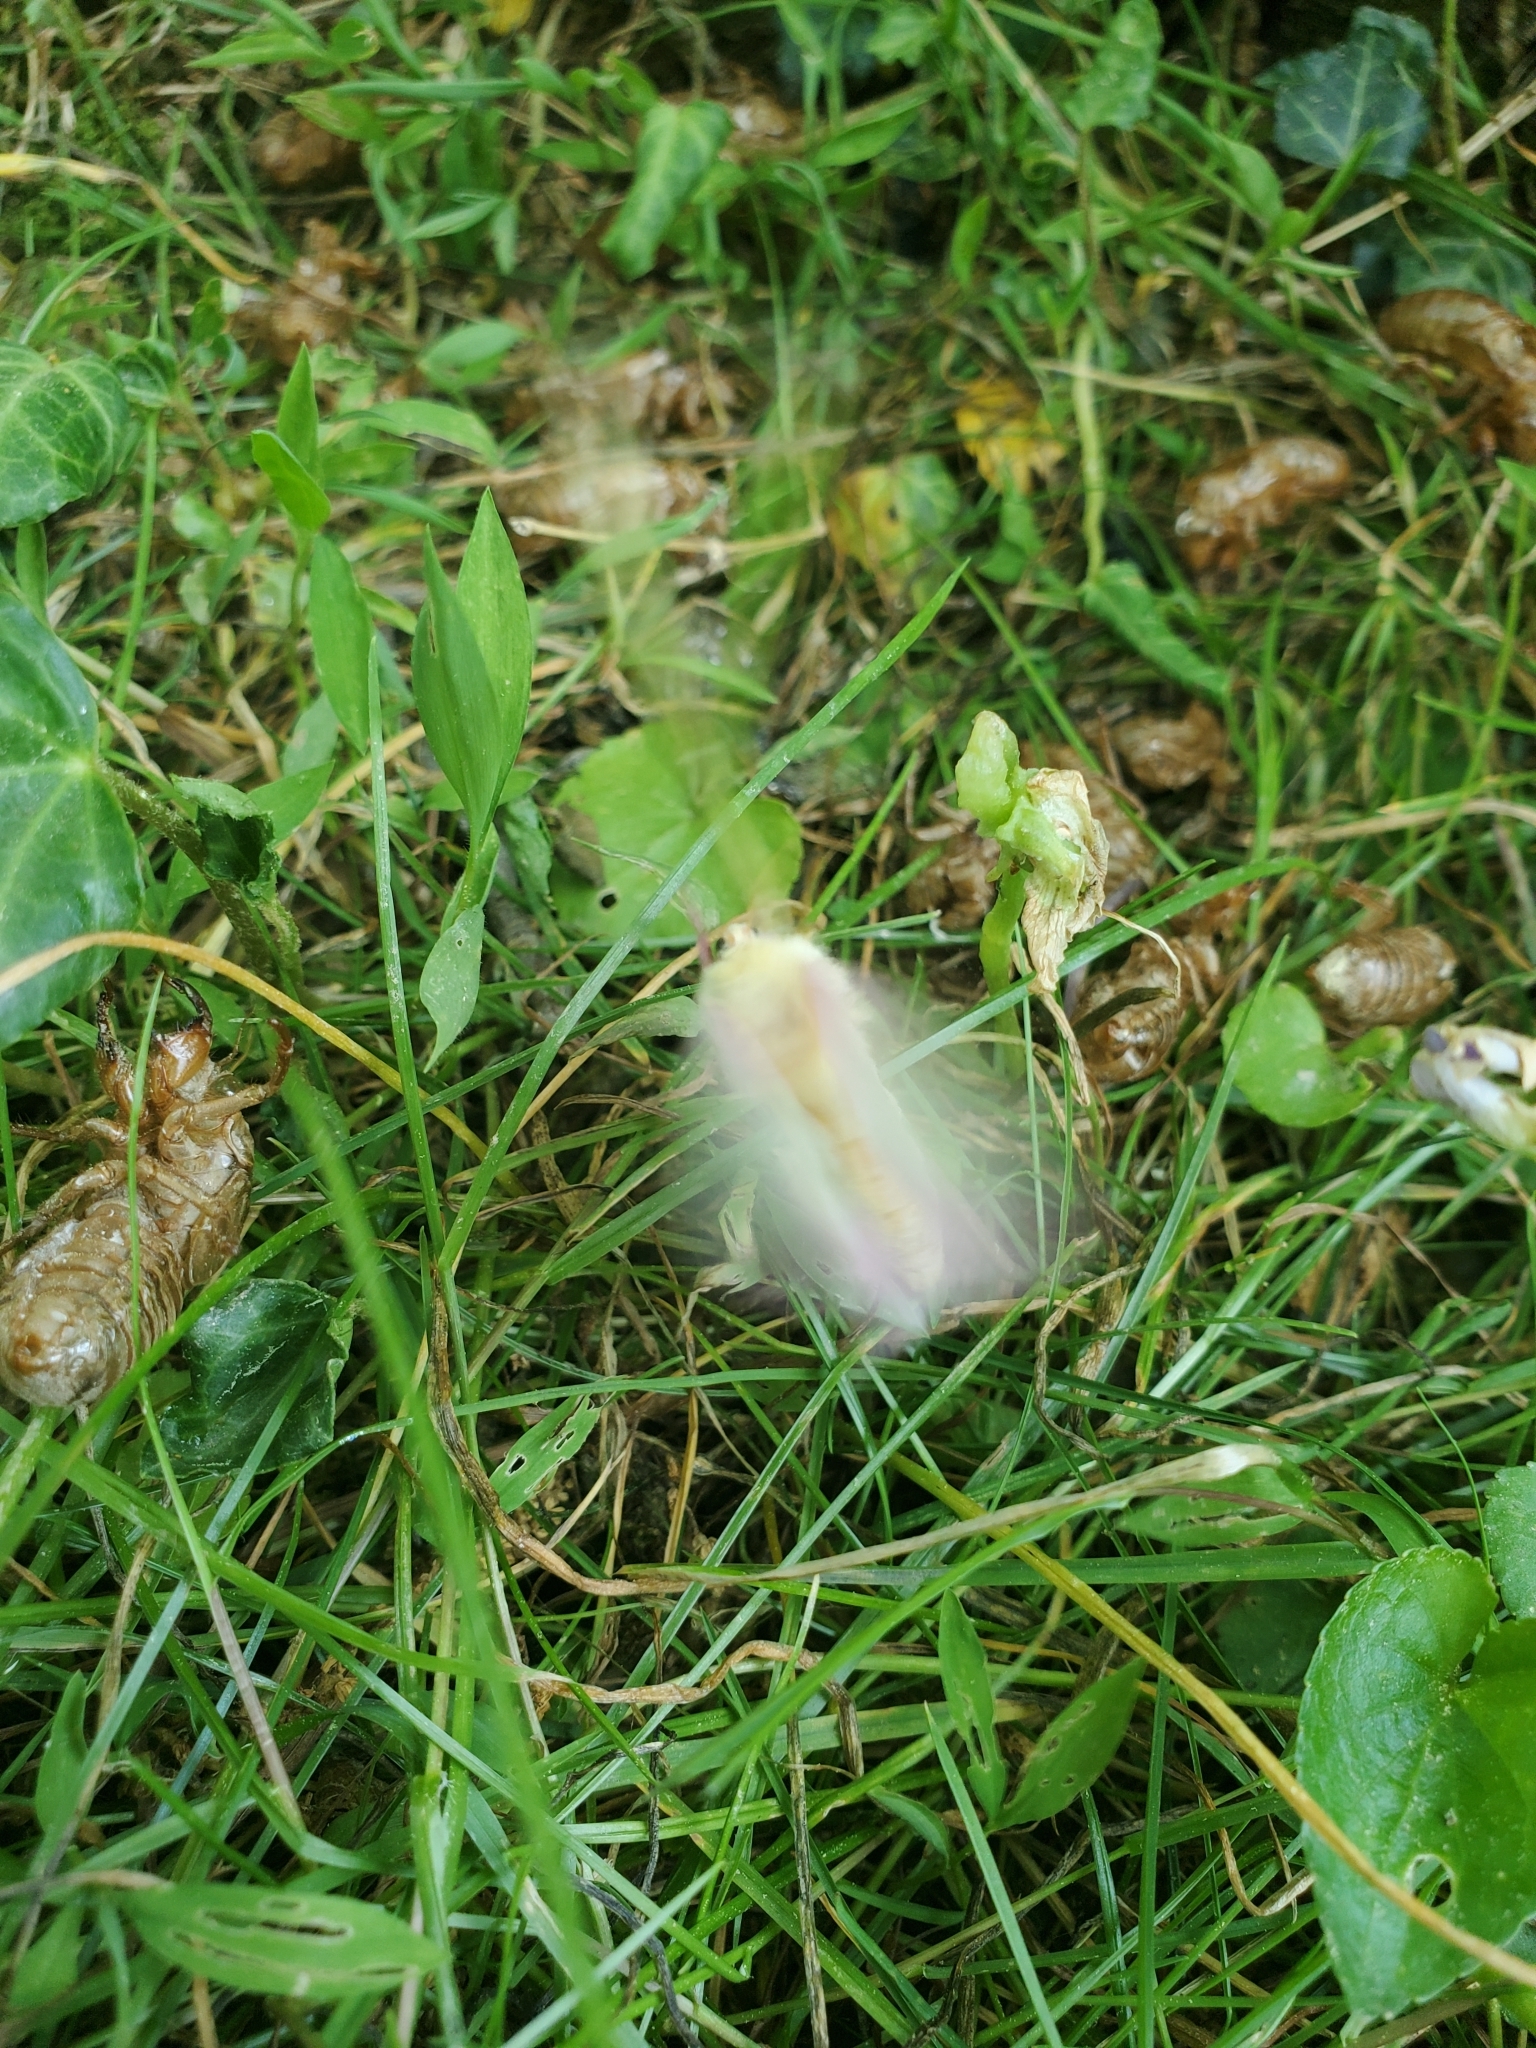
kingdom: Animalia
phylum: Arthropoda
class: Insecta
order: Lepidoptera
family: Saturniidae
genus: Dryocampa
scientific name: Dryocampa rubicunda
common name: Rosy maple moth
